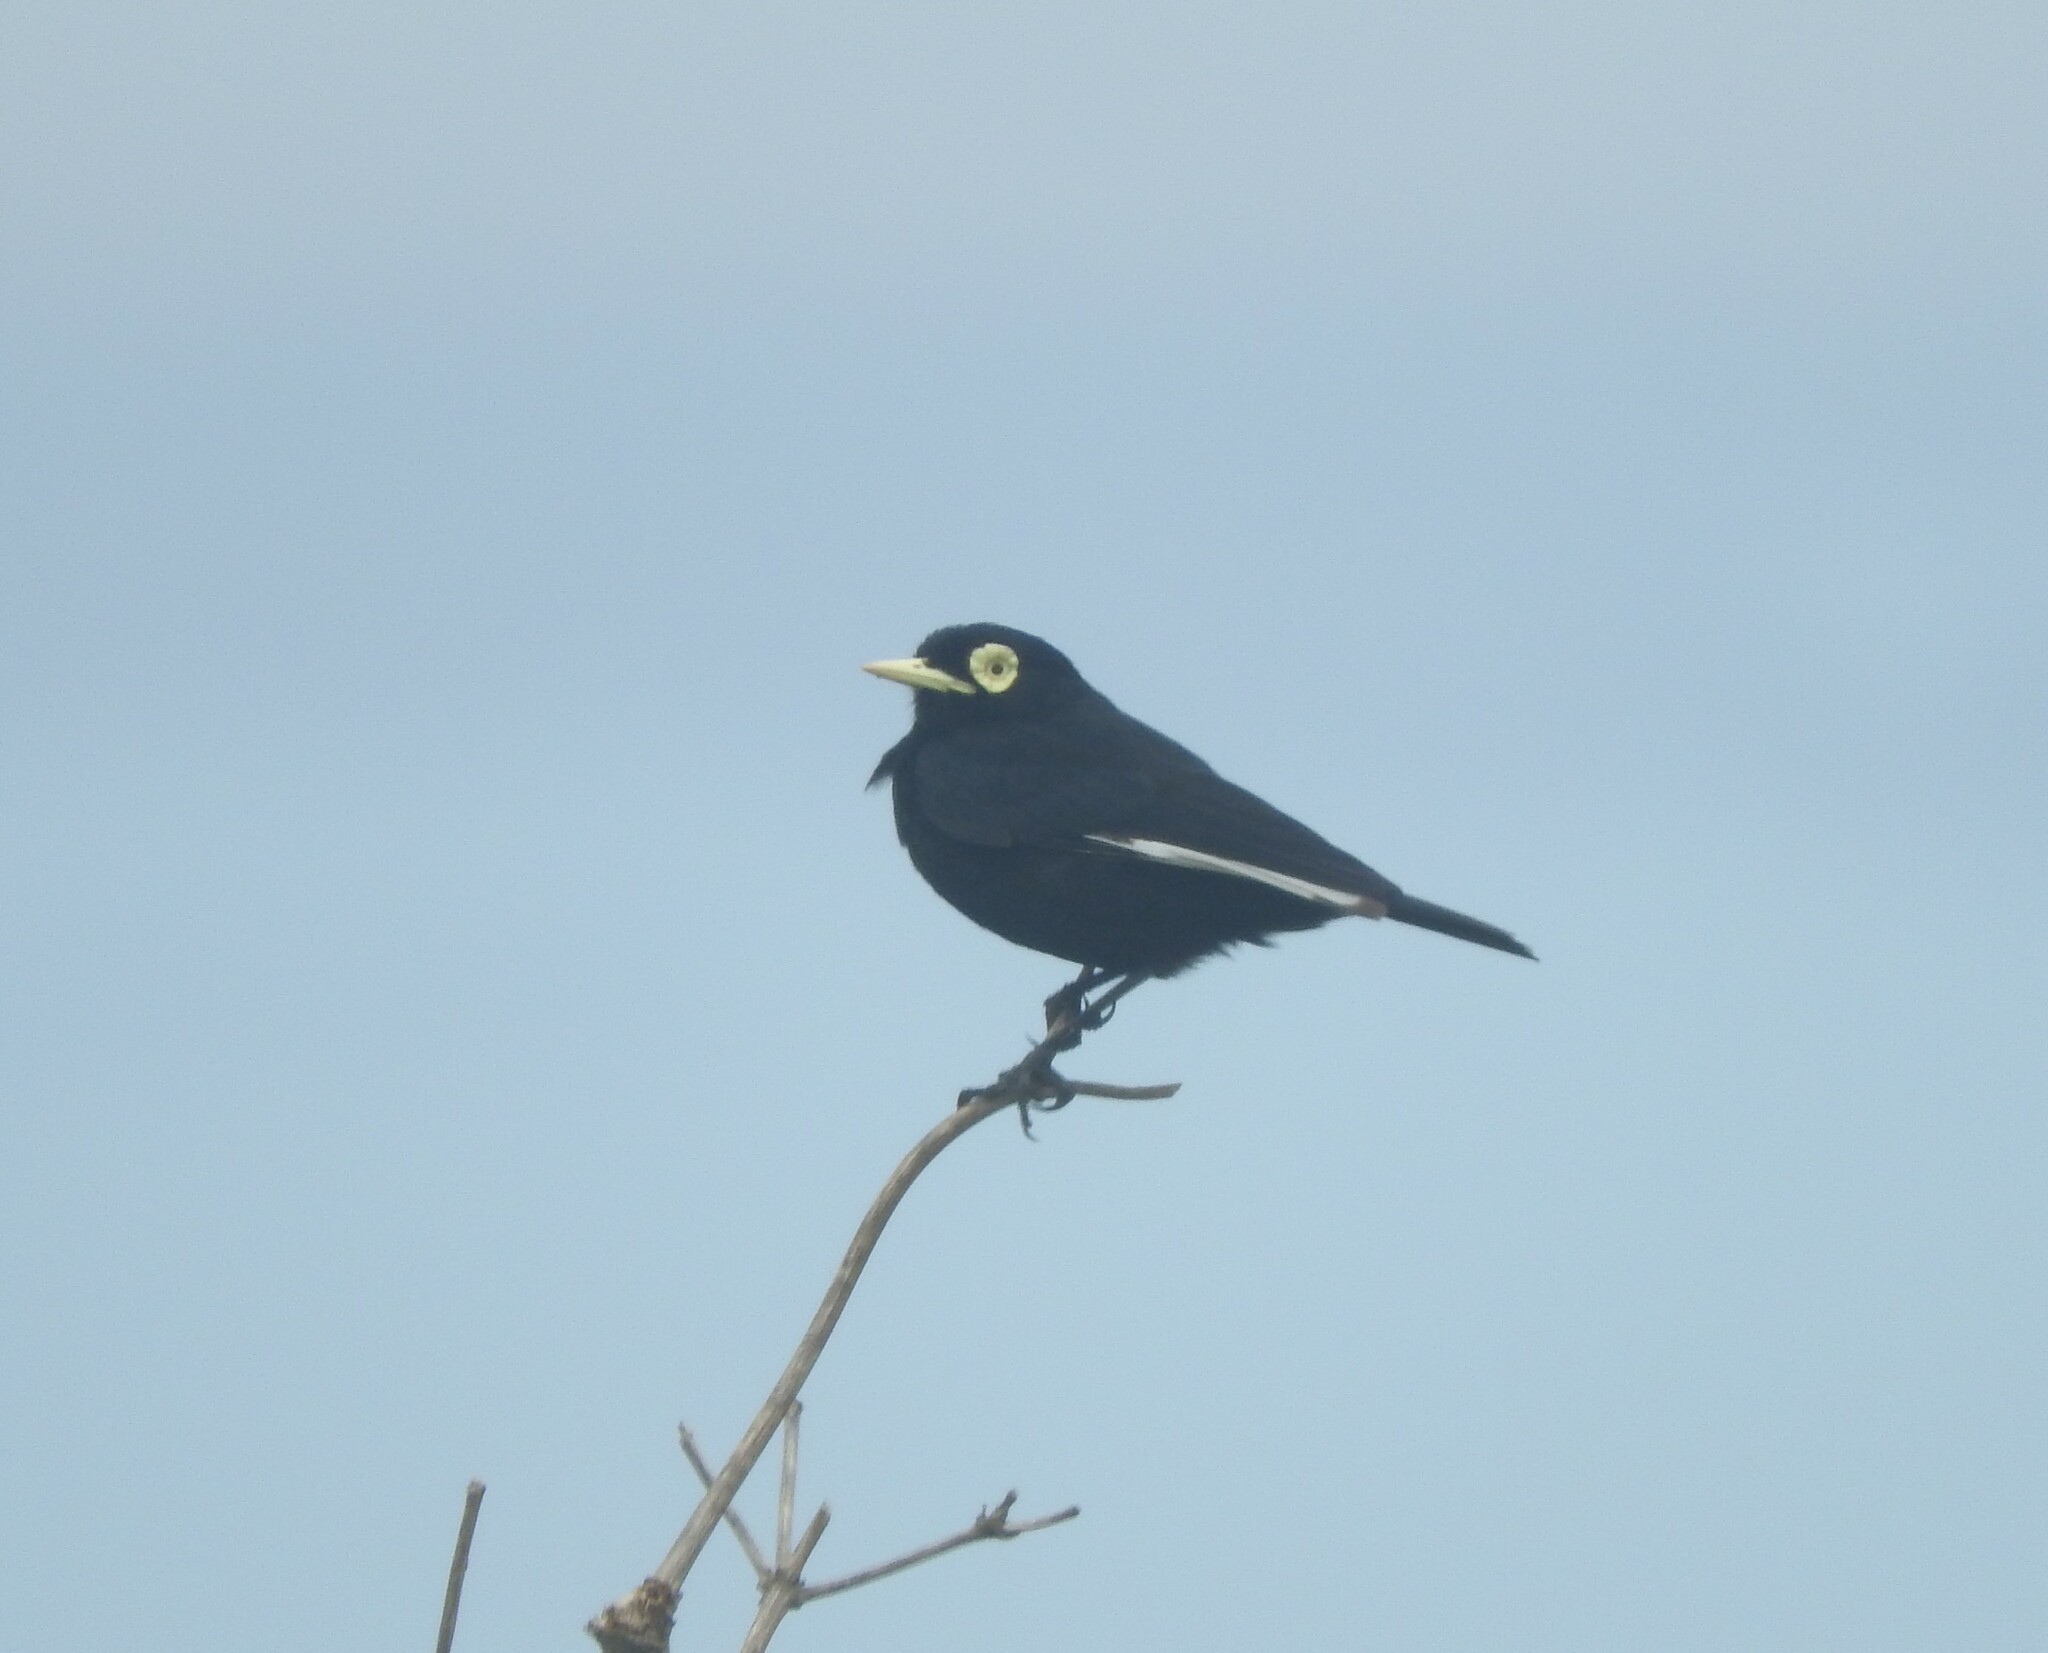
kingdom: Animalia
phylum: Chordata
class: Aves
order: Passeriformes
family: Tyrannidae
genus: Hymenops
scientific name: Hymenops perspicillatus
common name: Spectacled tyrant
